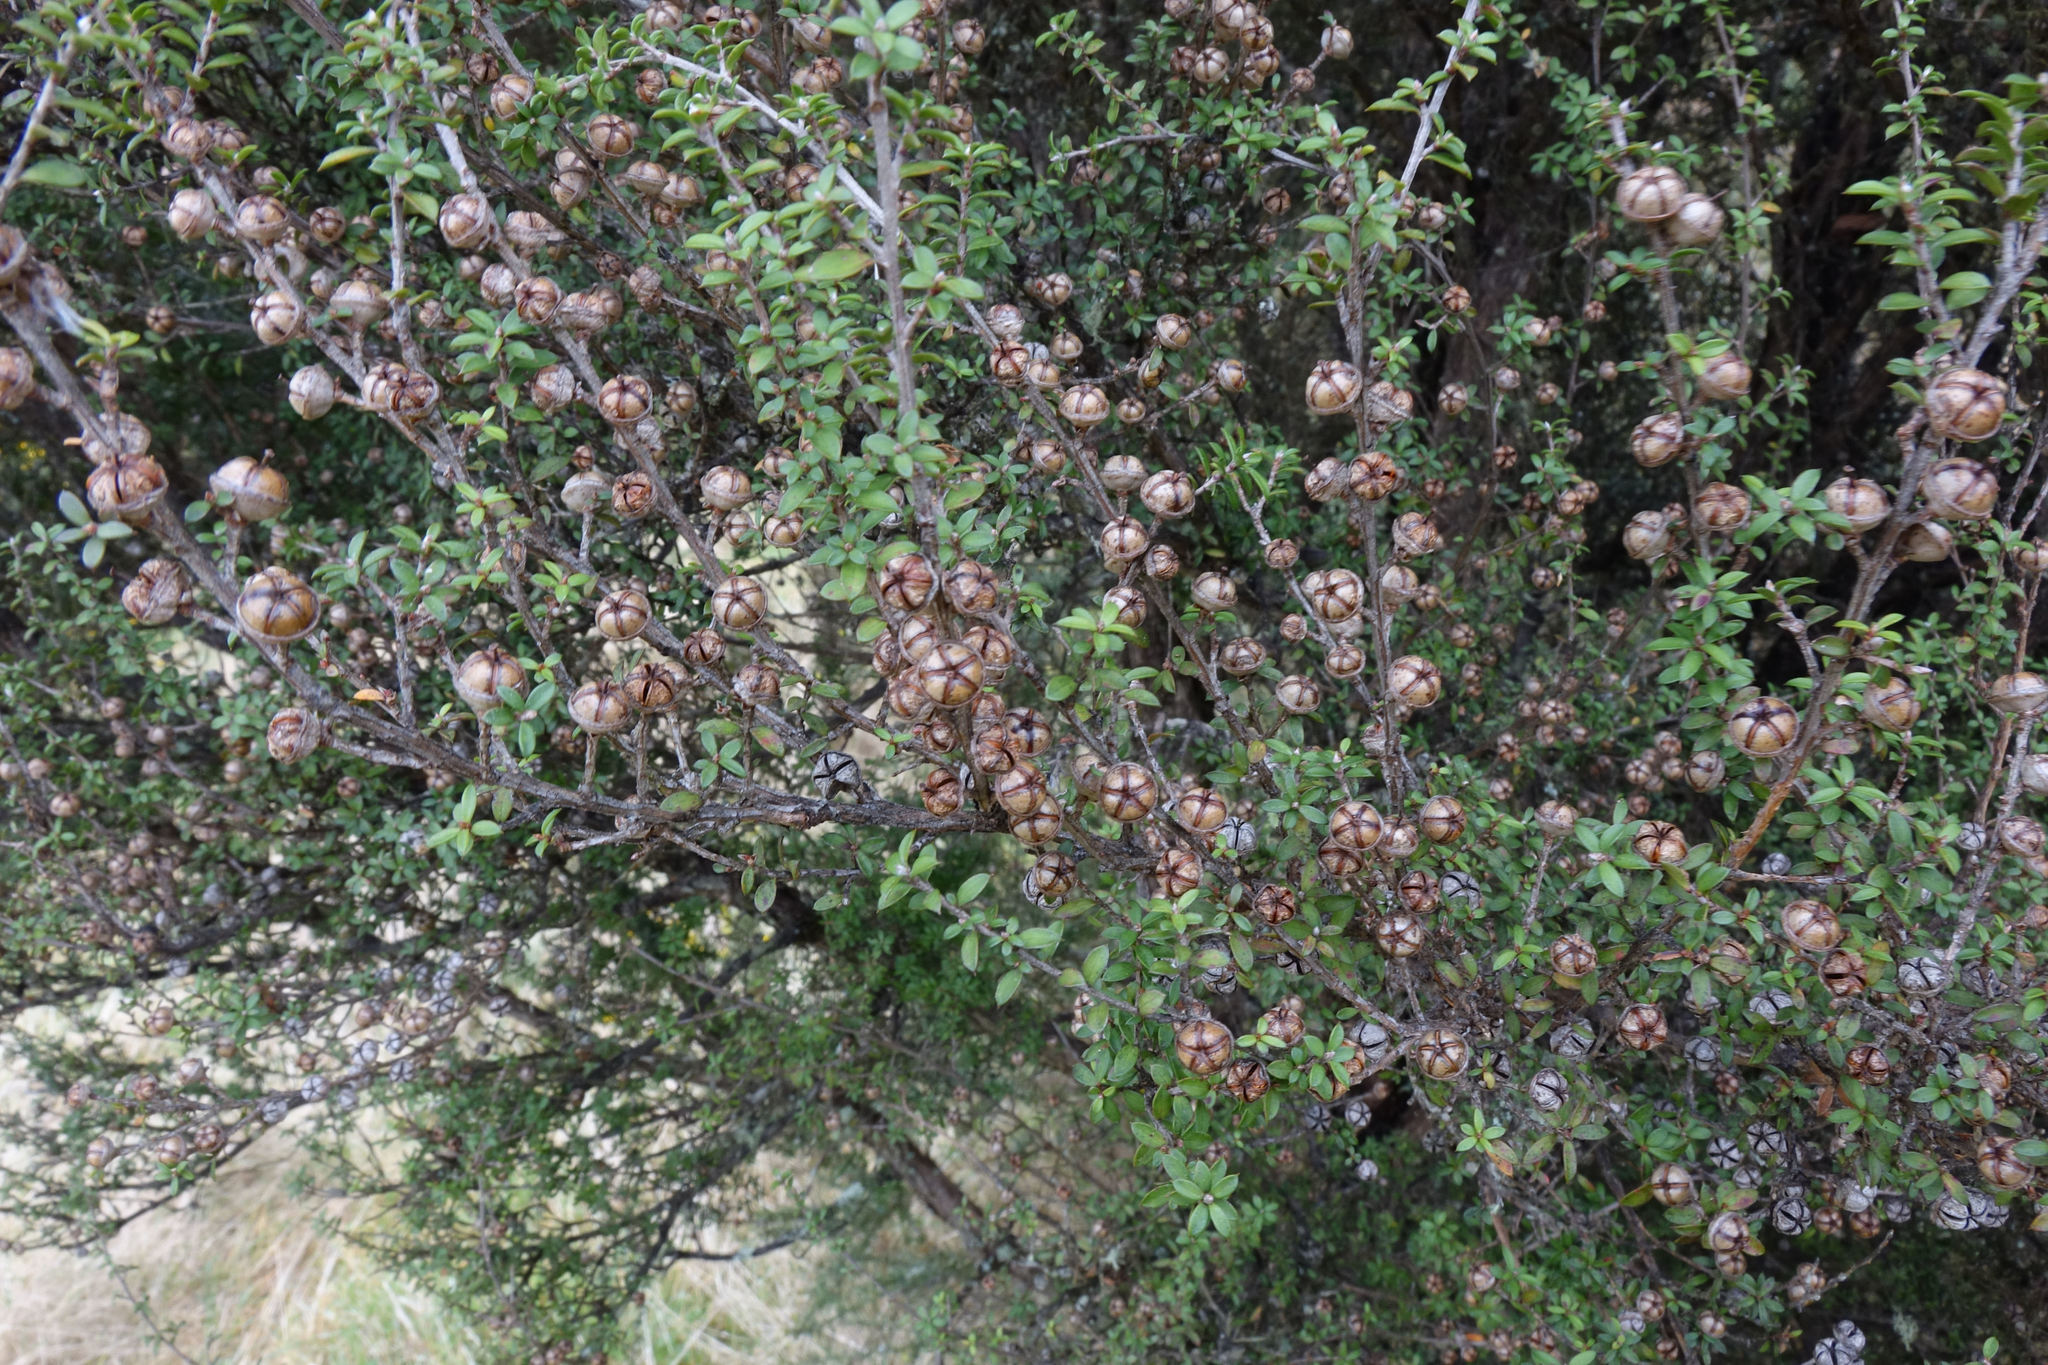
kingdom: Plantae
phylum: Tracheophyta
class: Magnoliopsida
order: Myrtales
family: Myrtaceae
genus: Leptospermum
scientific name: Leptospermum scoparium
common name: Broom tea-tree
